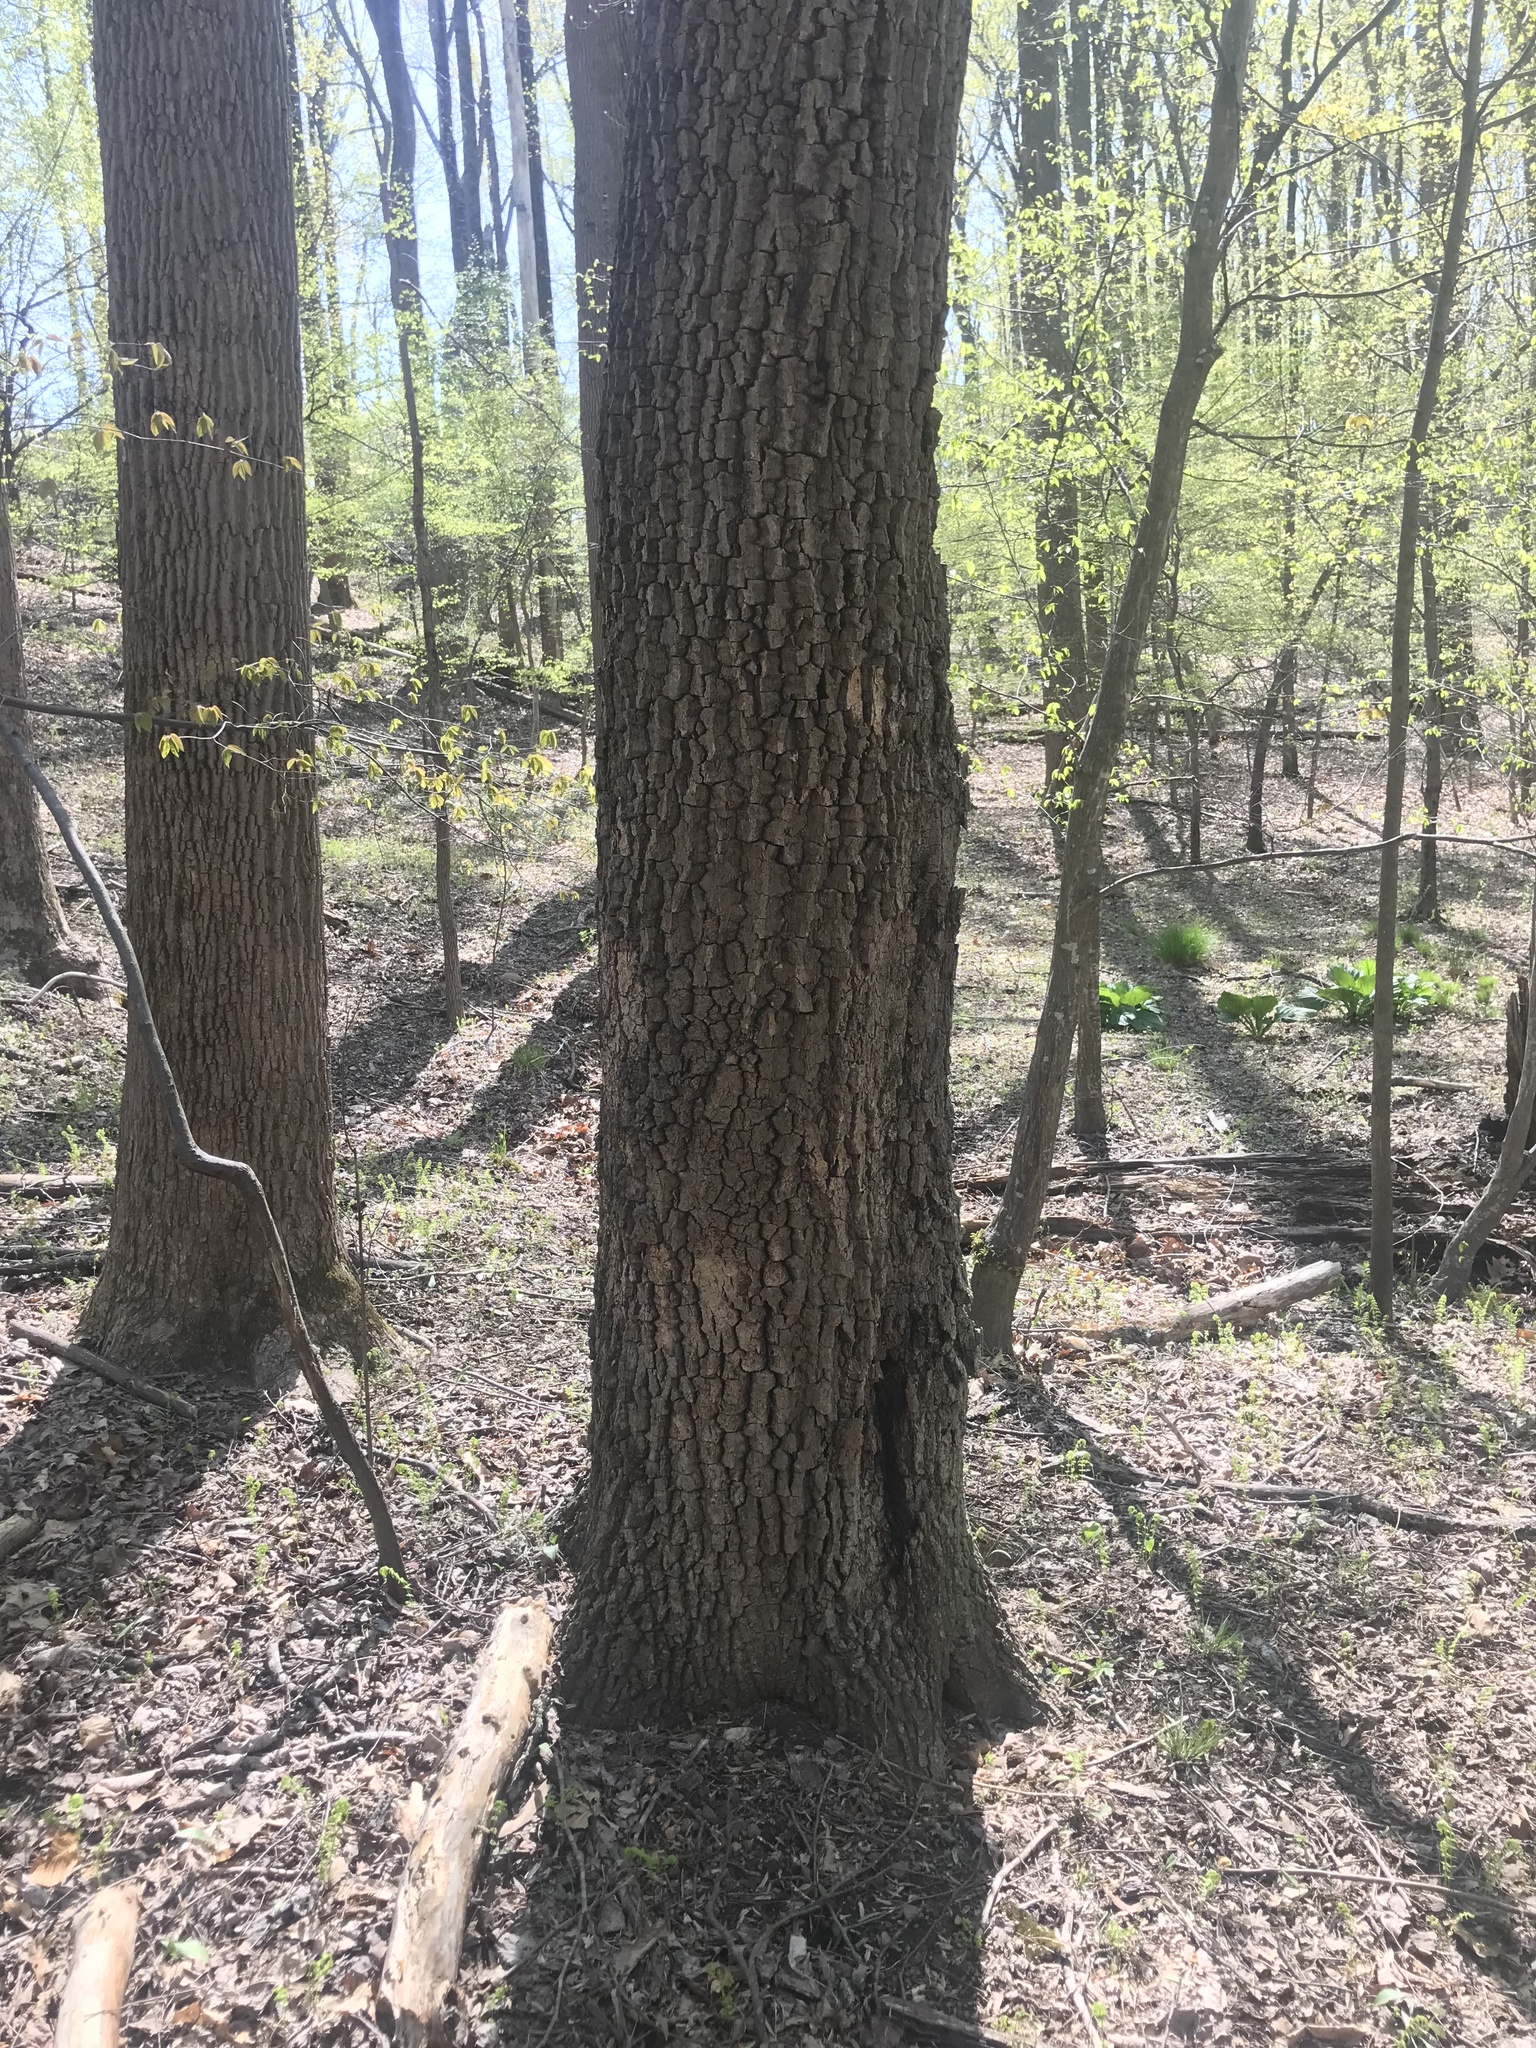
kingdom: Plantae
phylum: Tracheophyta
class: Magnoliopsida
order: Ericales
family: Ebenaceae
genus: Diospyros
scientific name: Diospyros virginiana
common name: Persimmon
